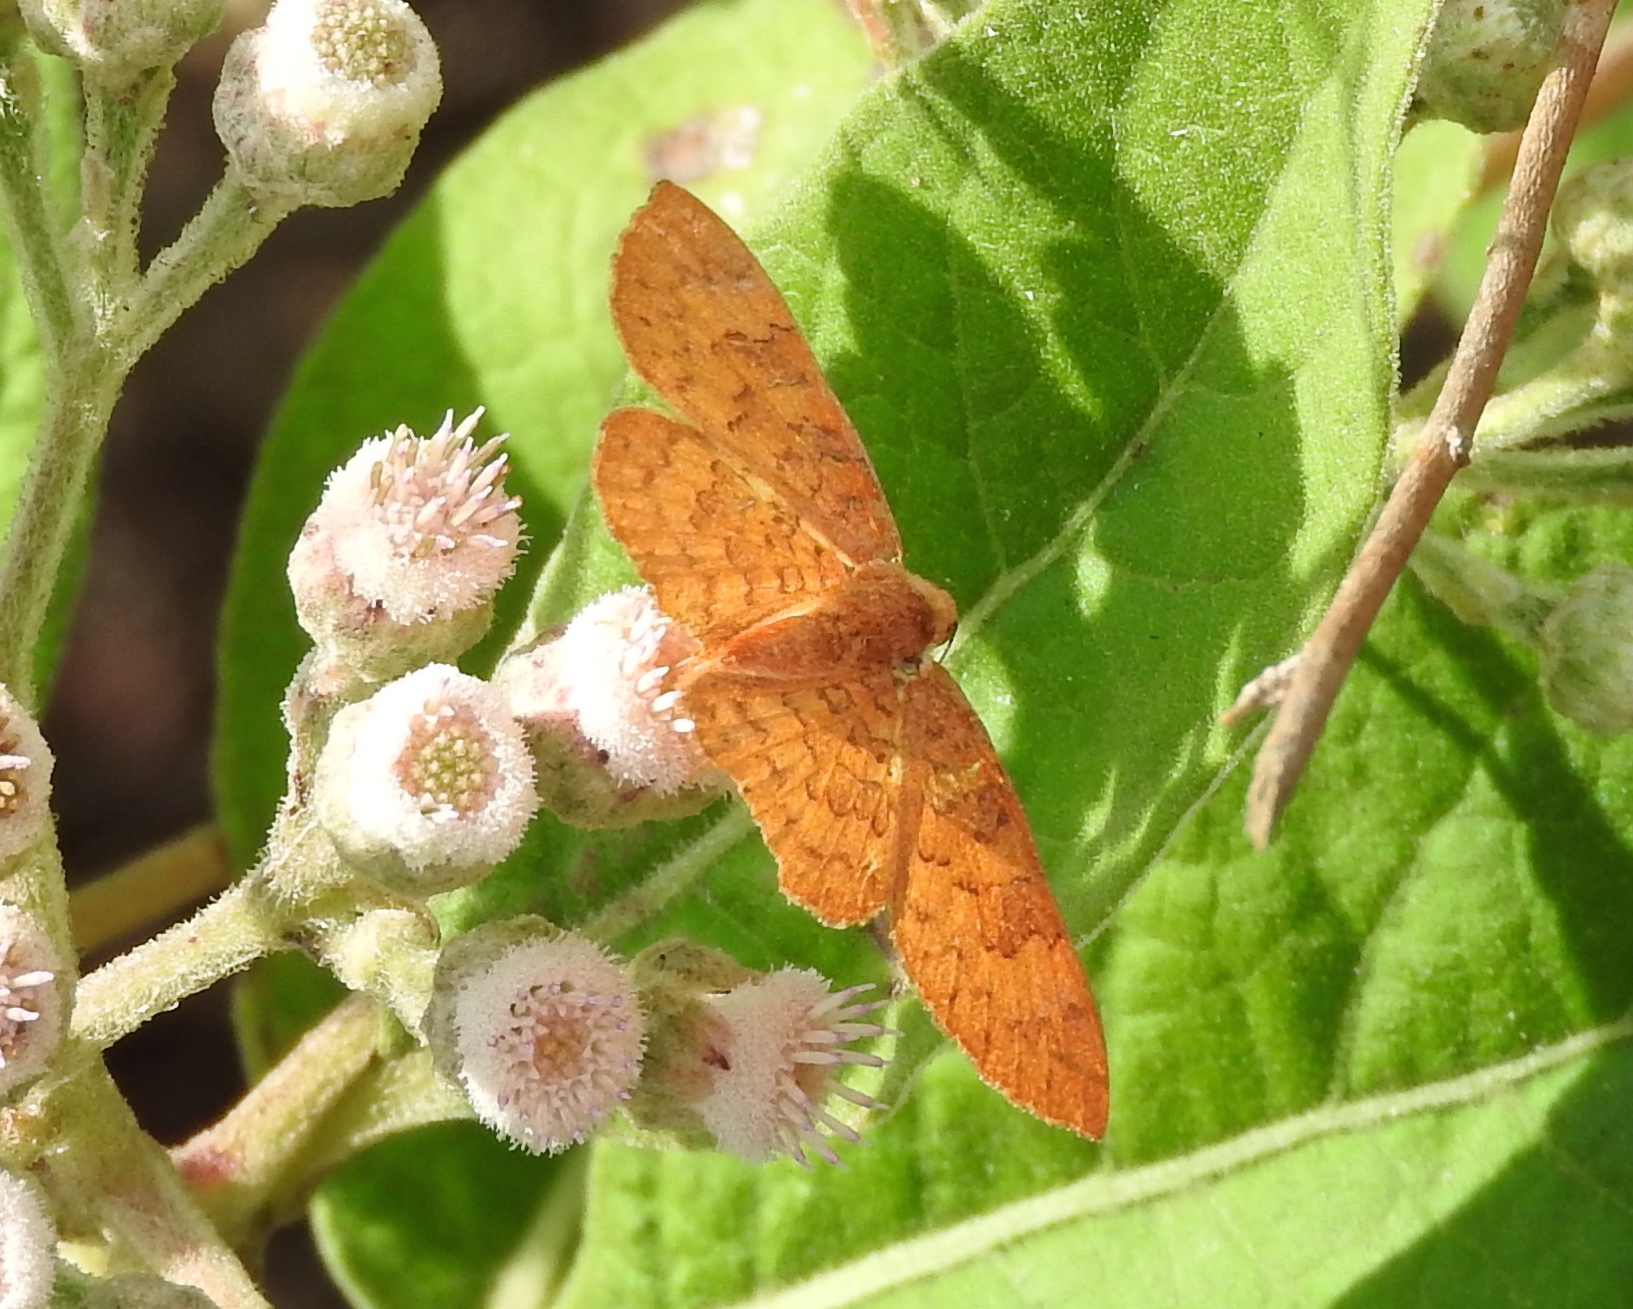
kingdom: Animalia
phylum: Arthropoda
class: Insecta
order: Lepidoptera
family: Lycaenidae
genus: Emesis
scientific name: Emesis vulpina
